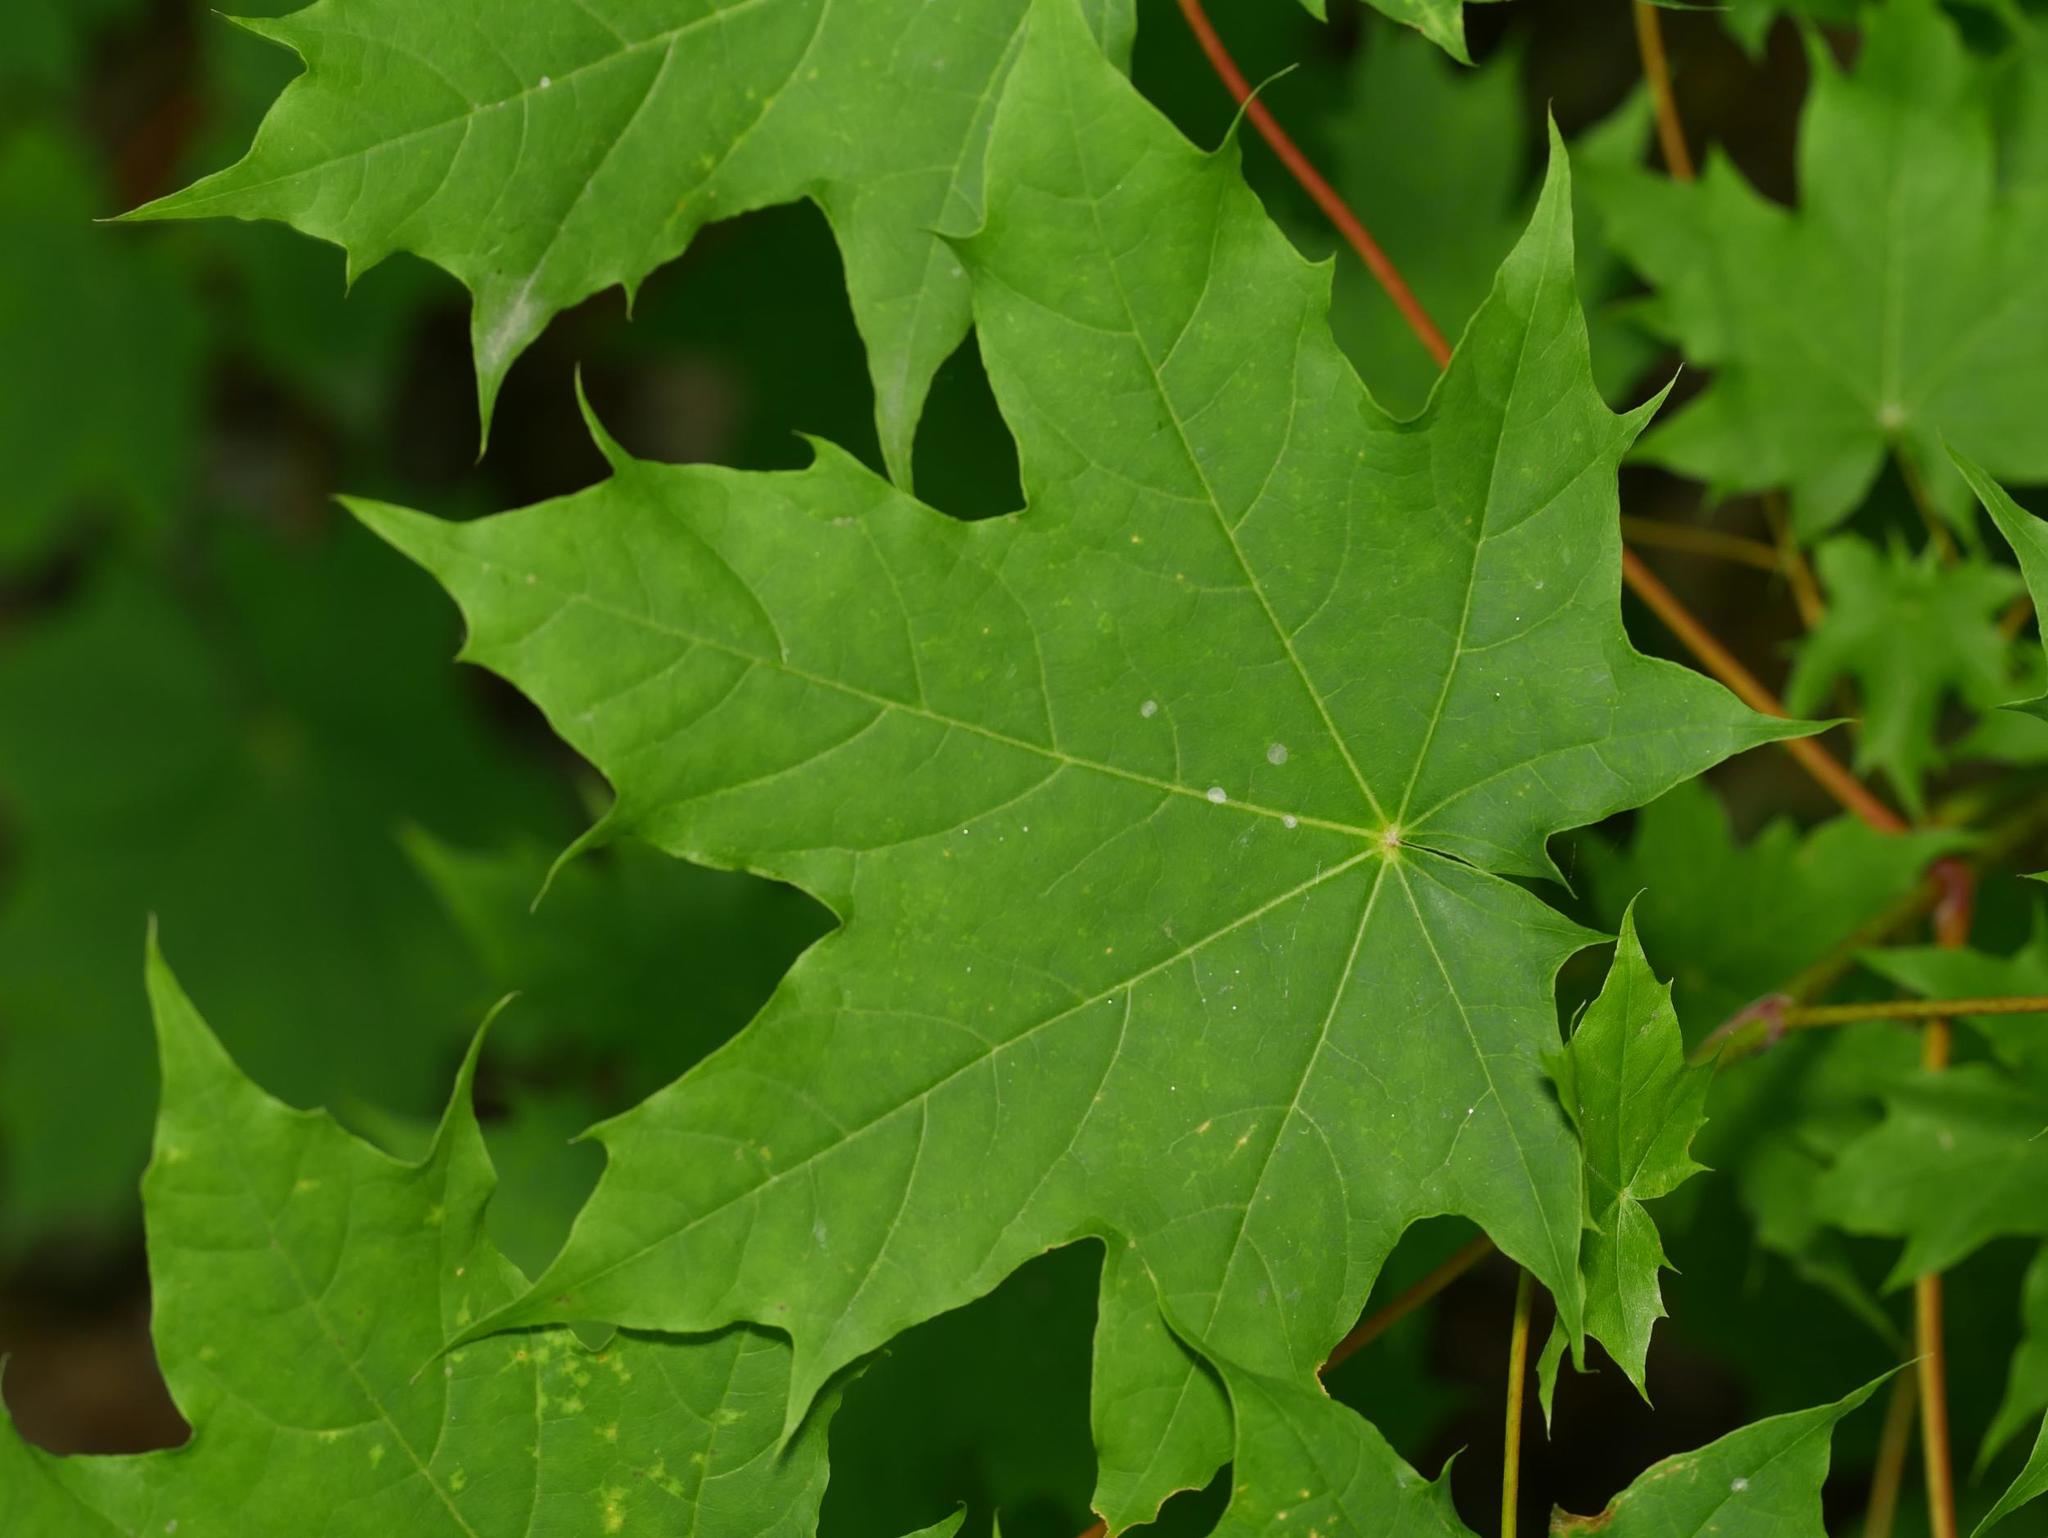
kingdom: Plantae
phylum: Tracheophyta
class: Magnoliopsida
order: Sapindales
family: Sapindaceae
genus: Acer
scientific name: Acer platanoides
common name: Norway maple
